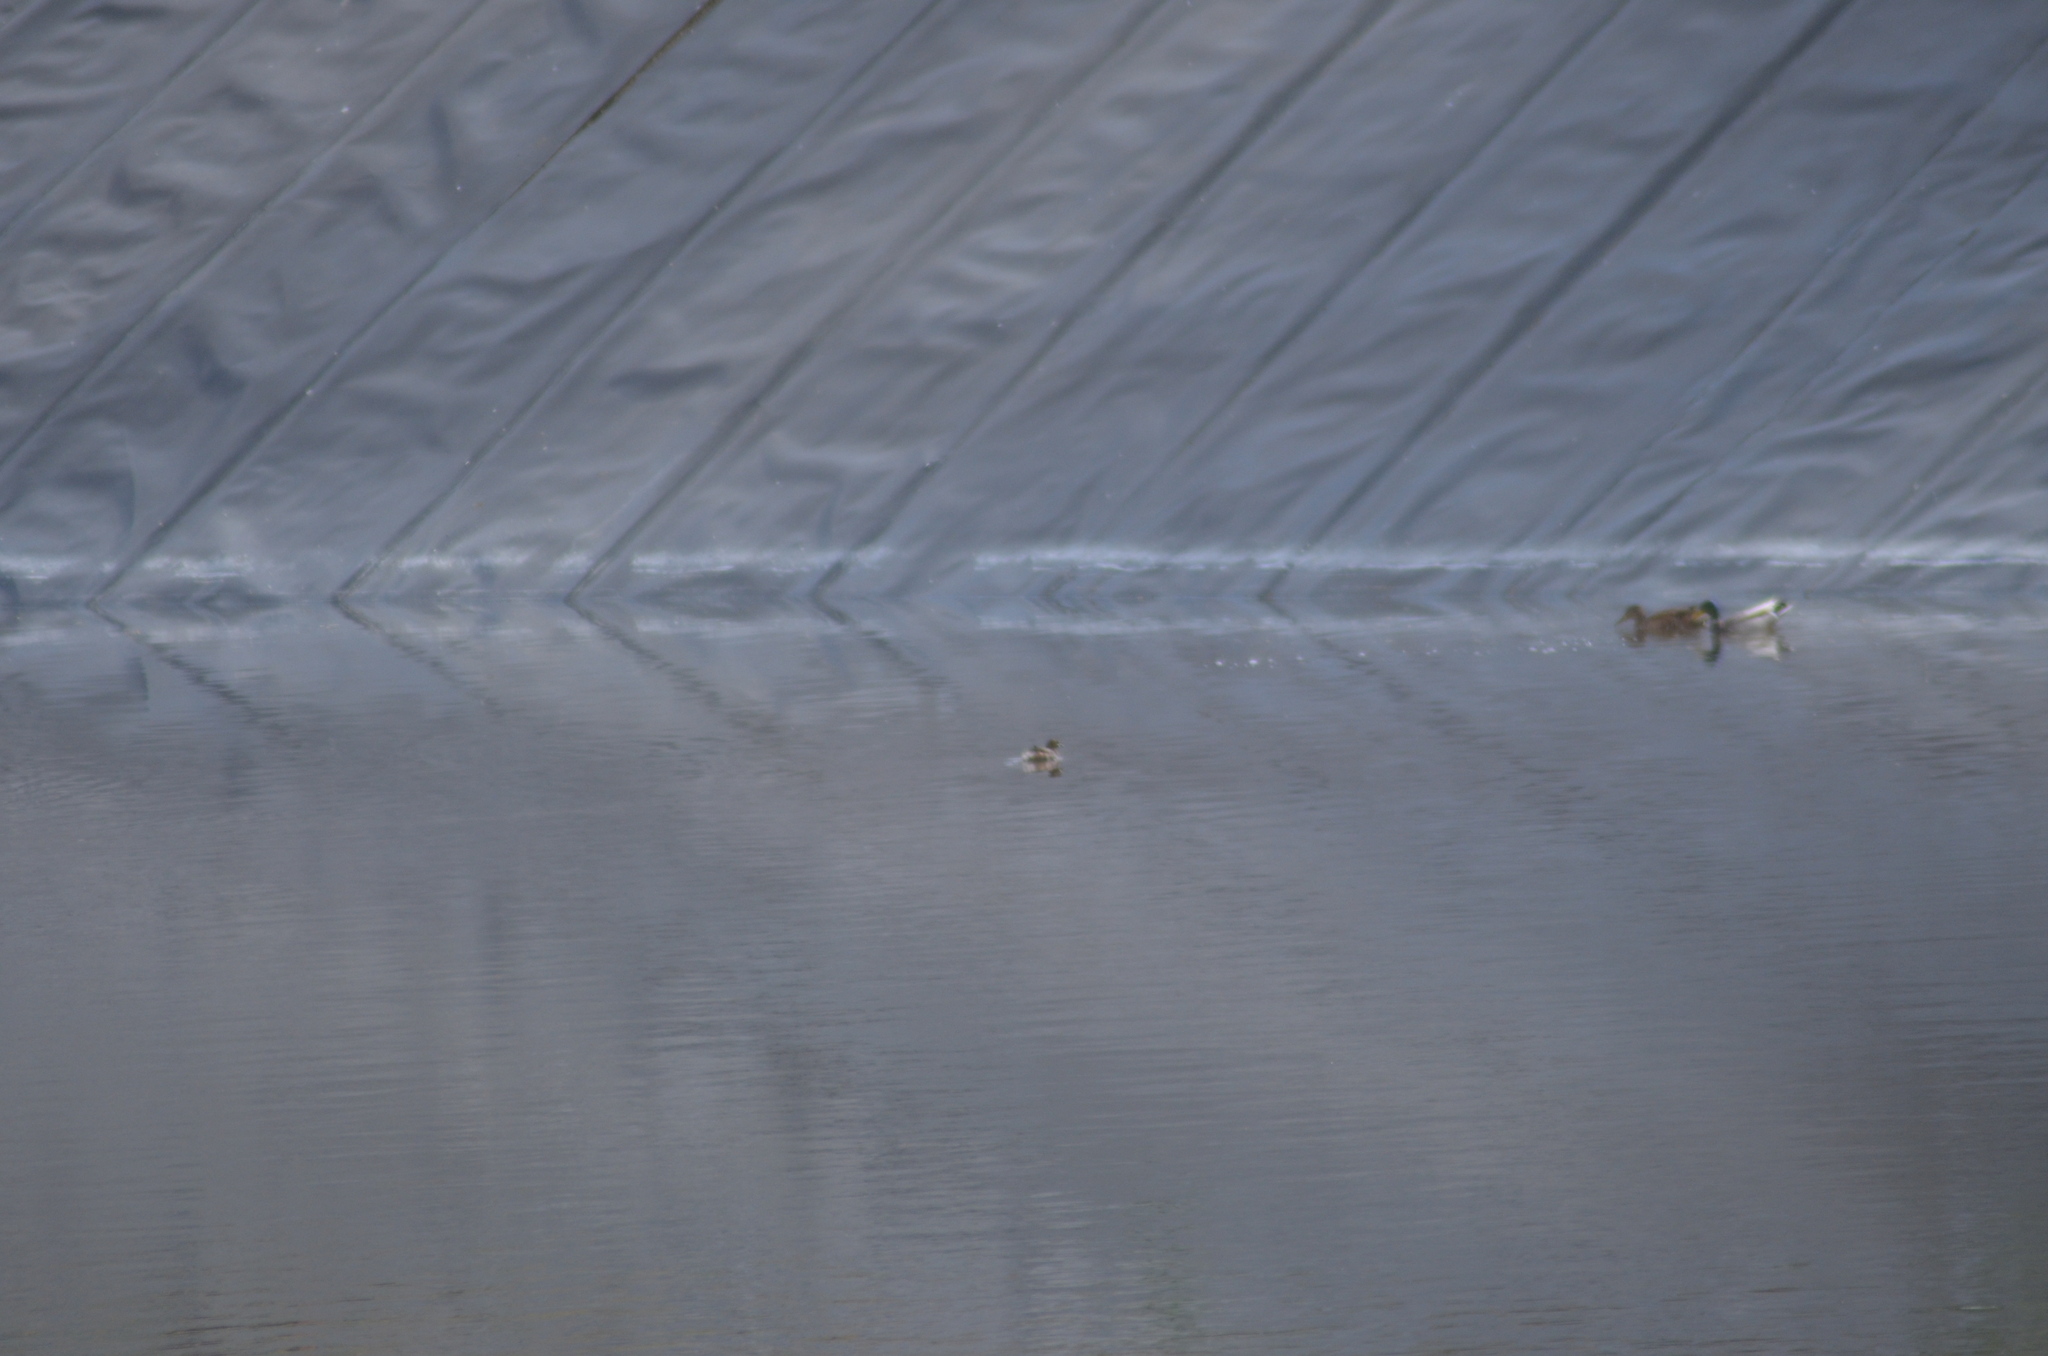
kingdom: Animalia
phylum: Chordata
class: Aves
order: Podicipediformes
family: Podicipedidae
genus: Tachybaptus
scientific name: Tachybaptus ruficollis
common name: Little grebe
